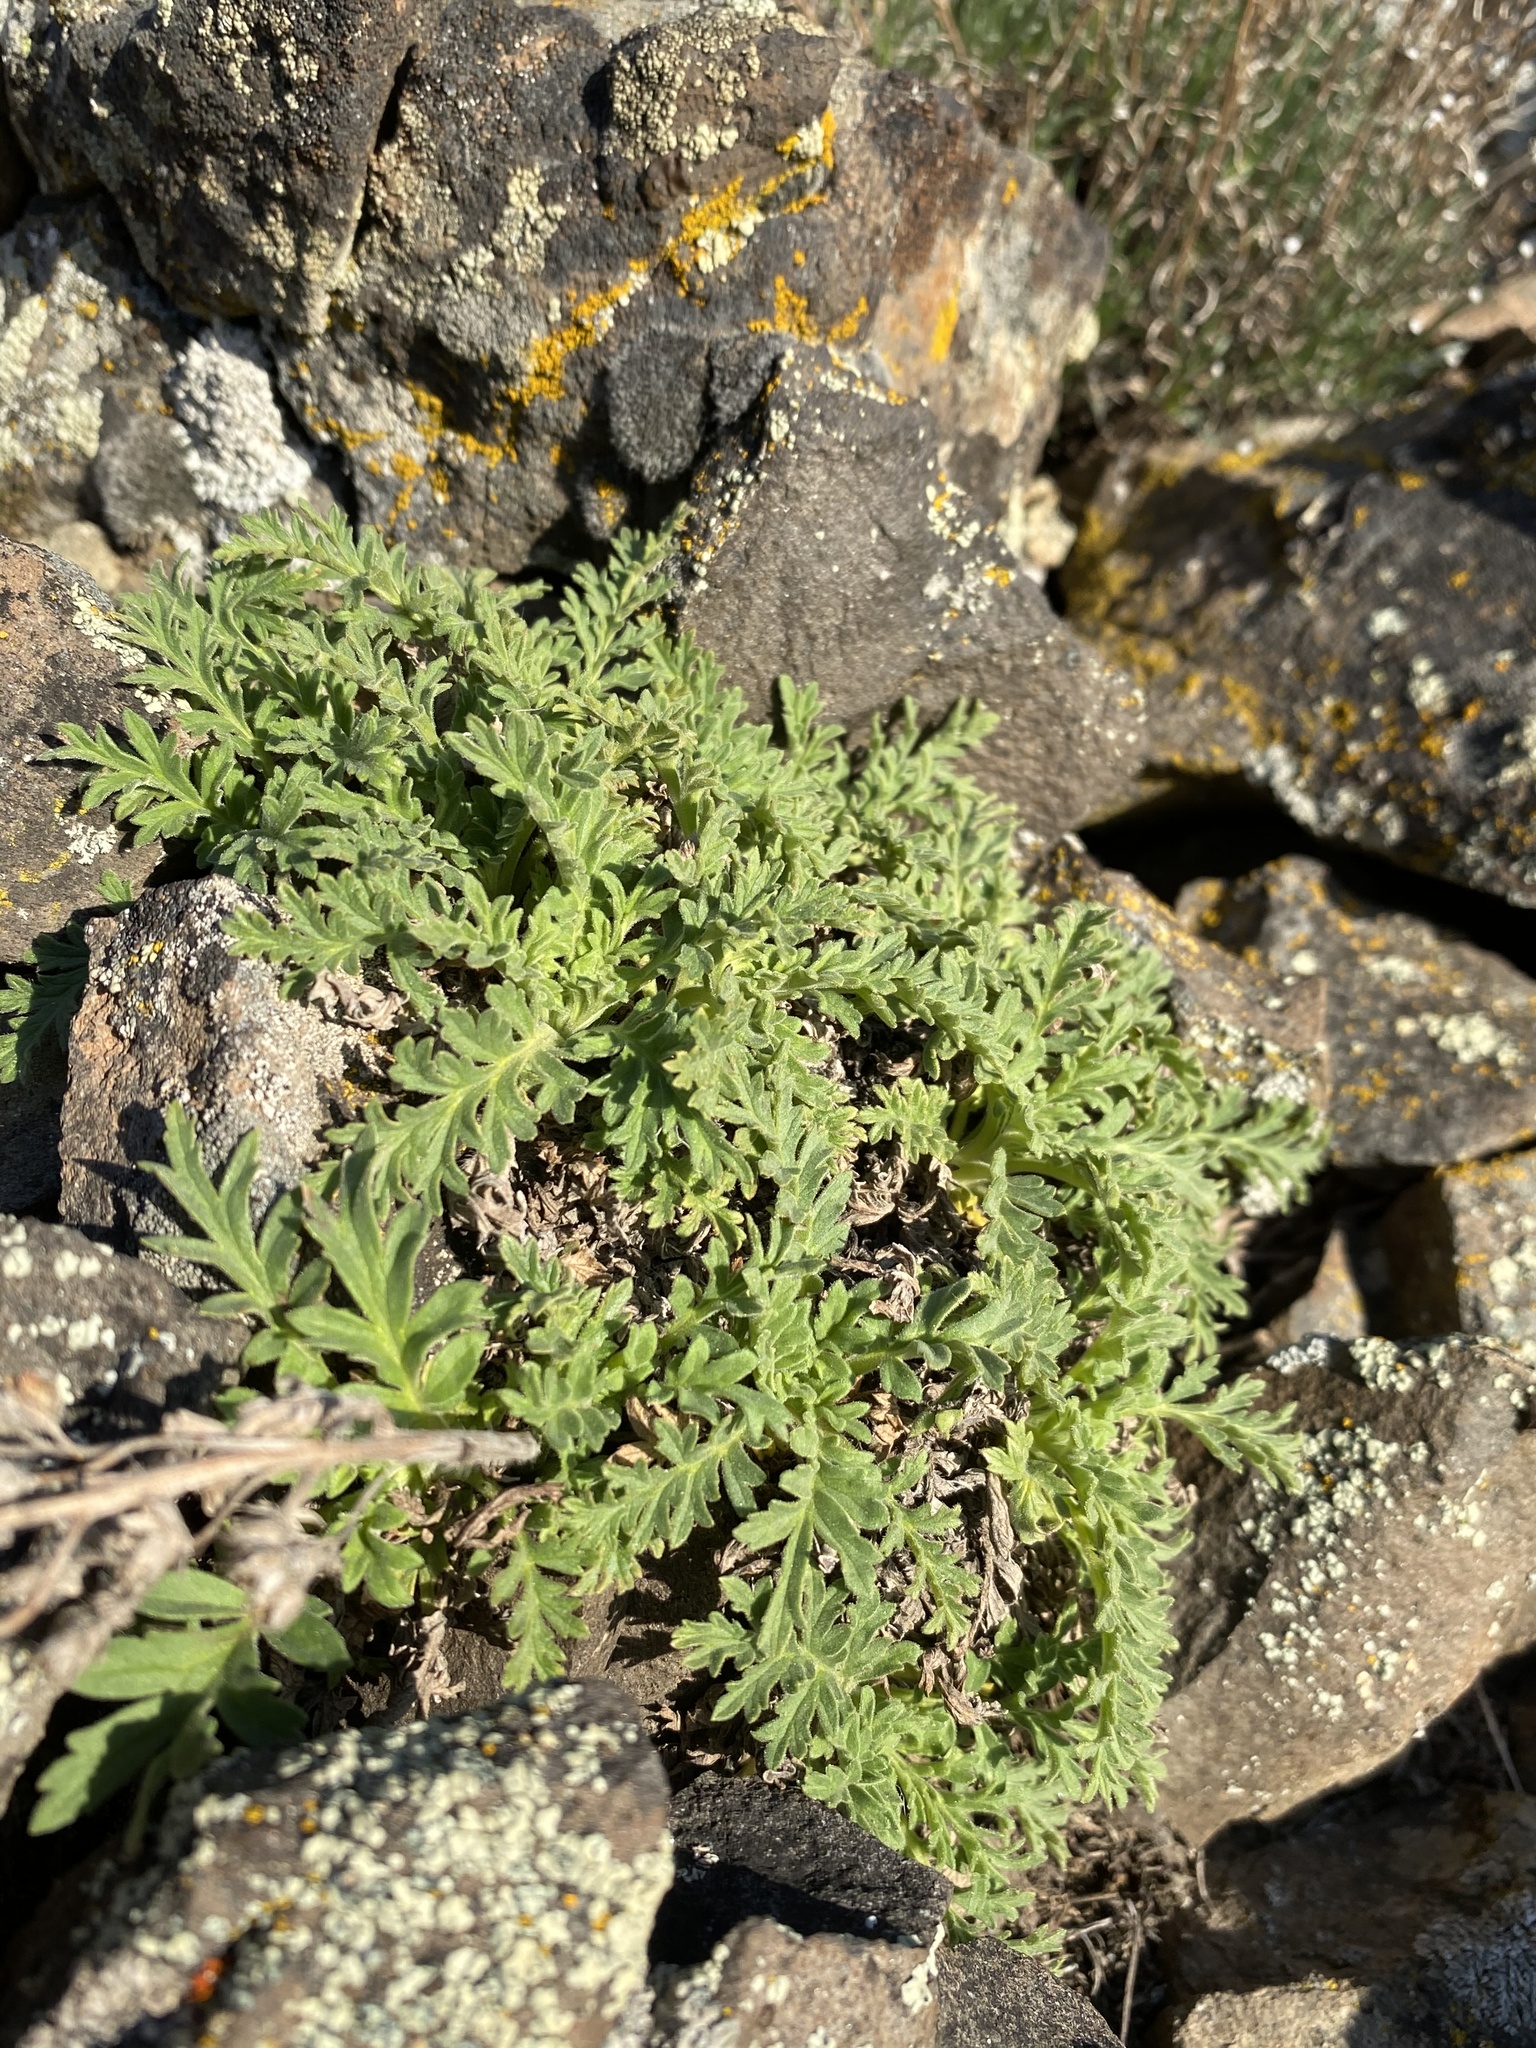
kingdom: Plantae
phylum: Tracheophyta
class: Magnoliopsida
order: Boraginales
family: Hydrophyllaceae
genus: Phacelia
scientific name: Phacelia lenta
